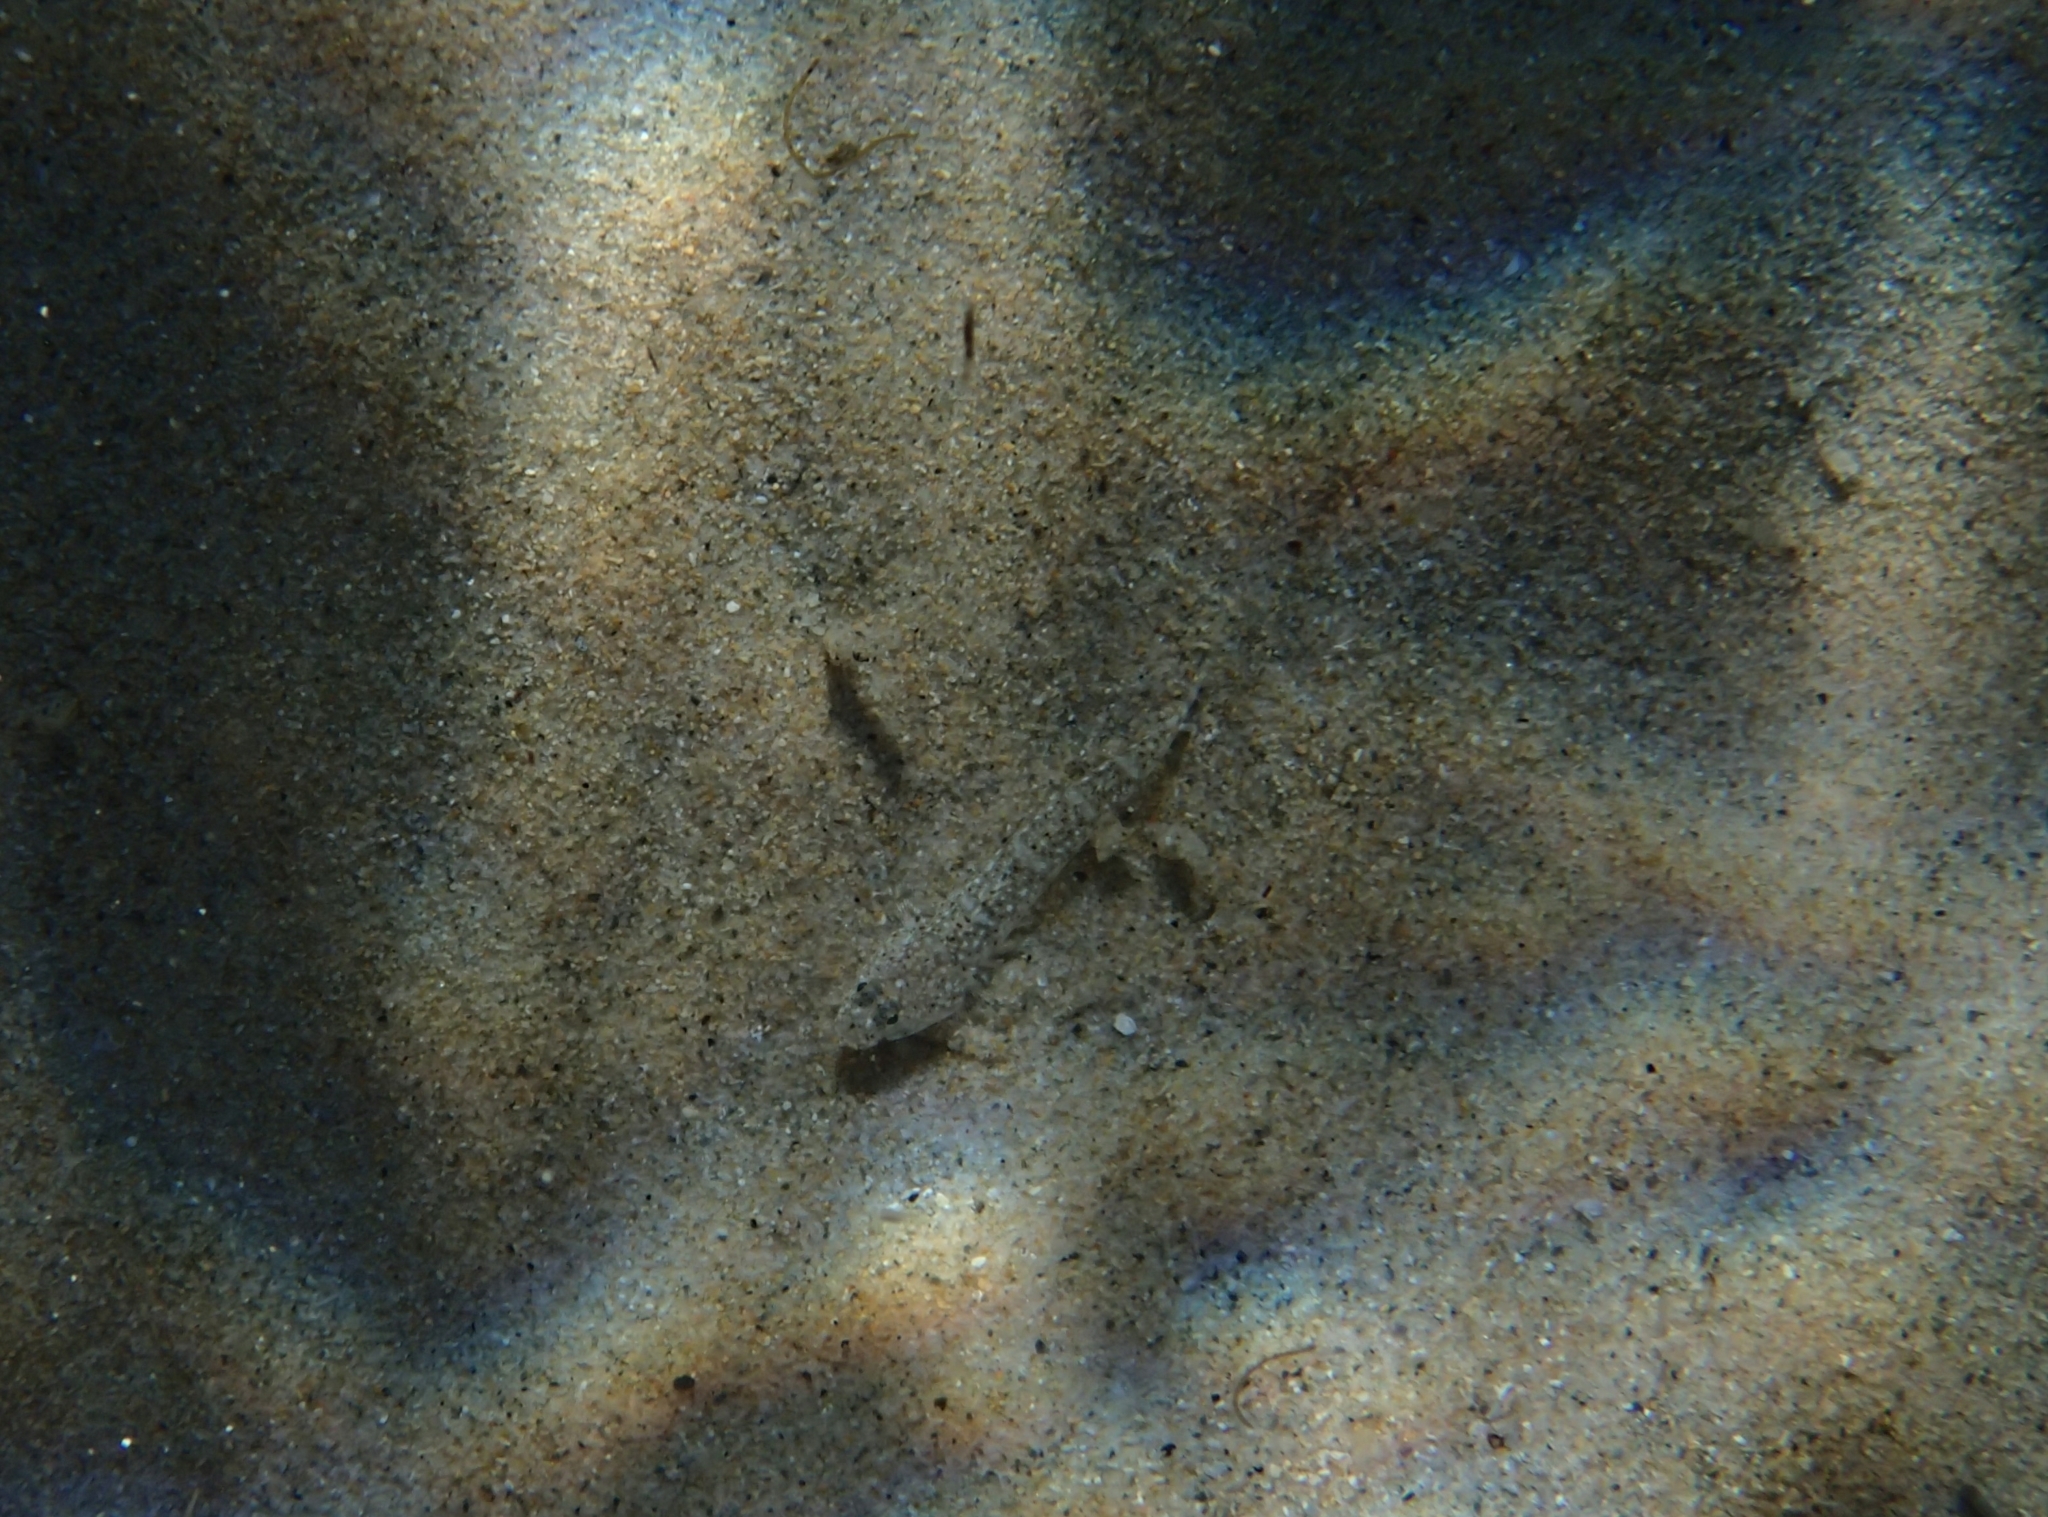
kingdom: Animalia
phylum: Chordata
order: Perciformes
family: Gobiidae
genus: Pomatoschistus
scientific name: Pomatoschistus marmoratus
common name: Marbled goby
